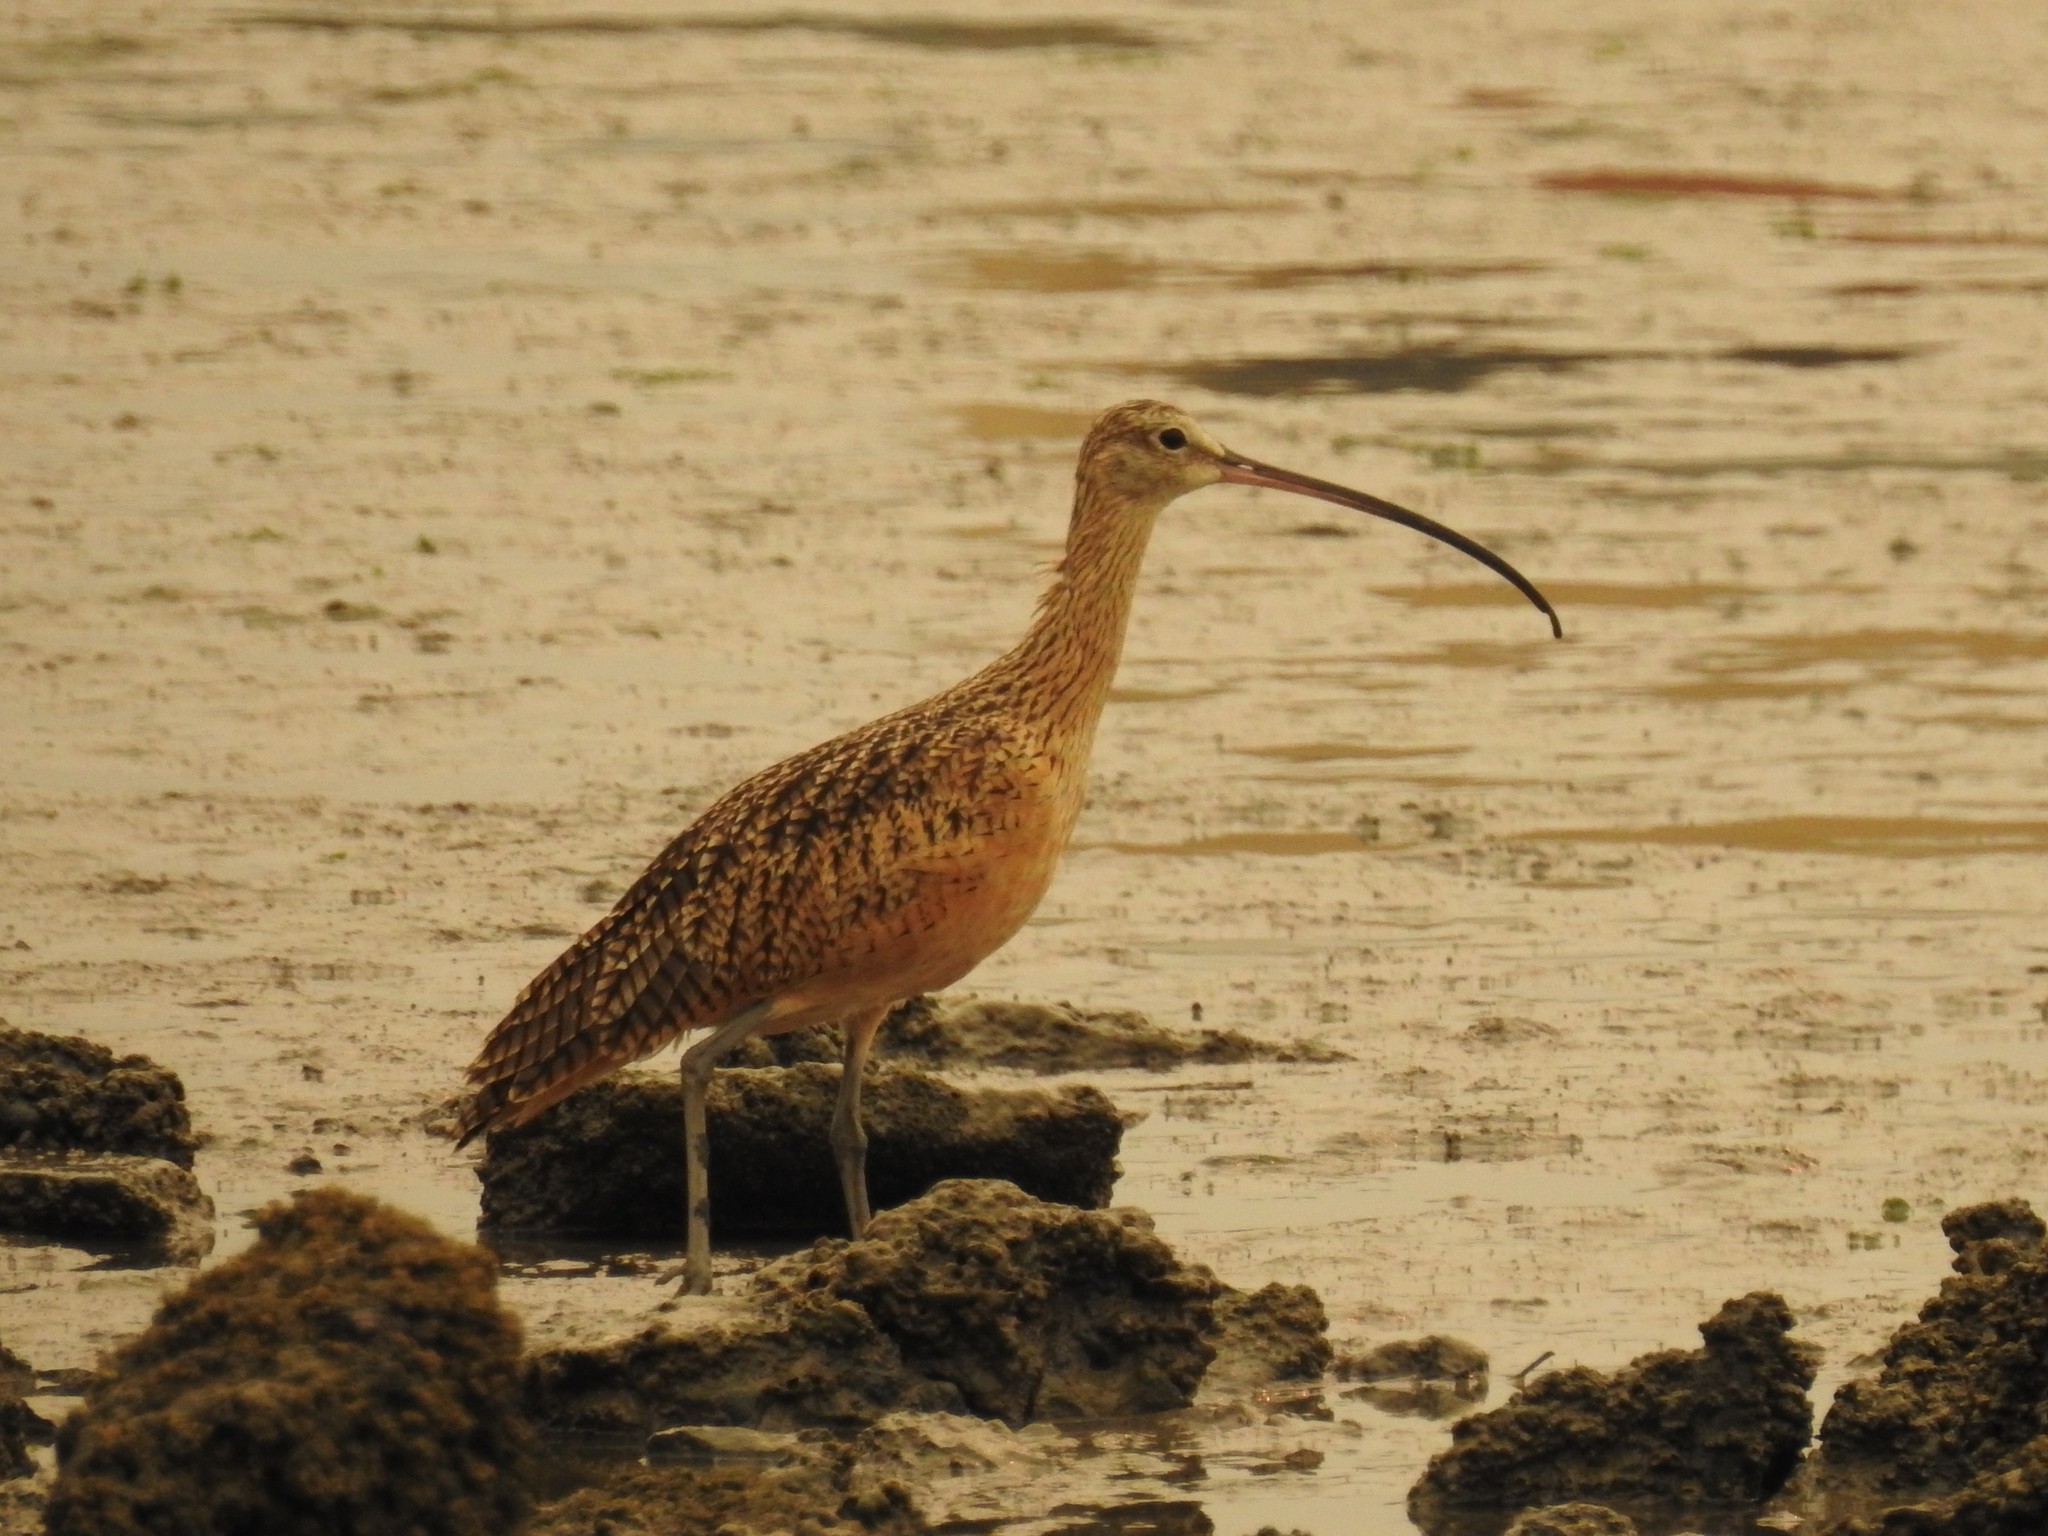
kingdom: Animalia
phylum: Chordata
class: Aves
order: Charadriiformes
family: Scolopacidae
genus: Numenius
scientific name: Numenius americanus
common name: Long-billed curlew
